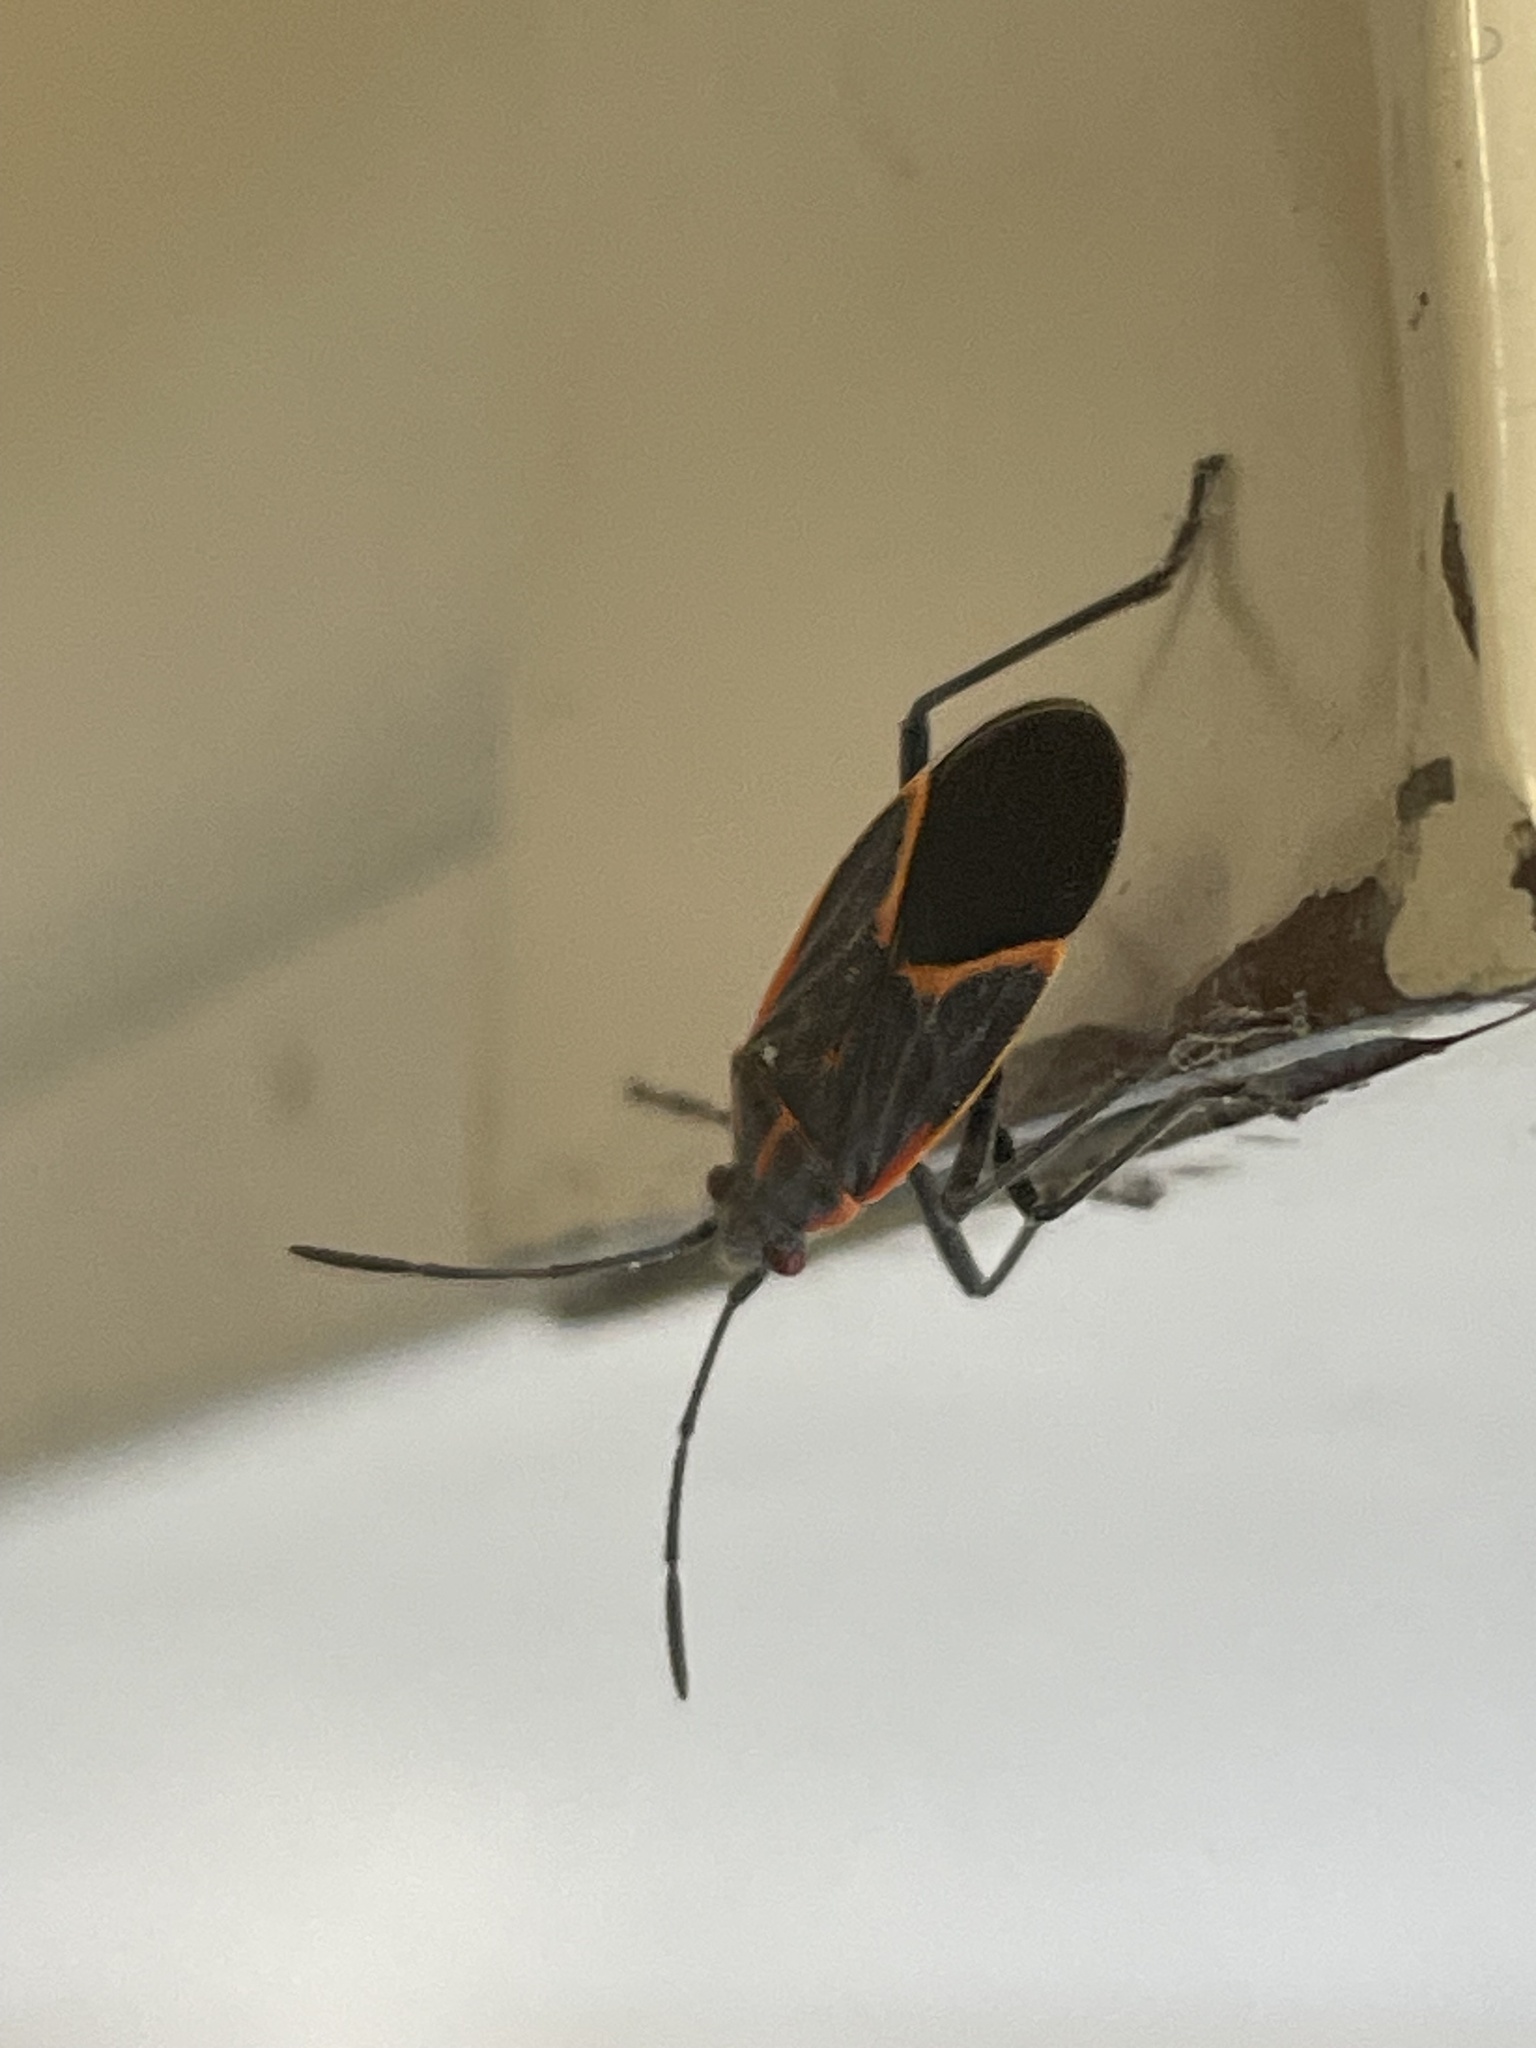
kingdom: Animalia
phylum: Arthropoda
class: Insecta
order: Hemiptera
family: Rhopalidae
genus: Boisea
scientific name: Boisea trivittata
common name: Boxelder bug
